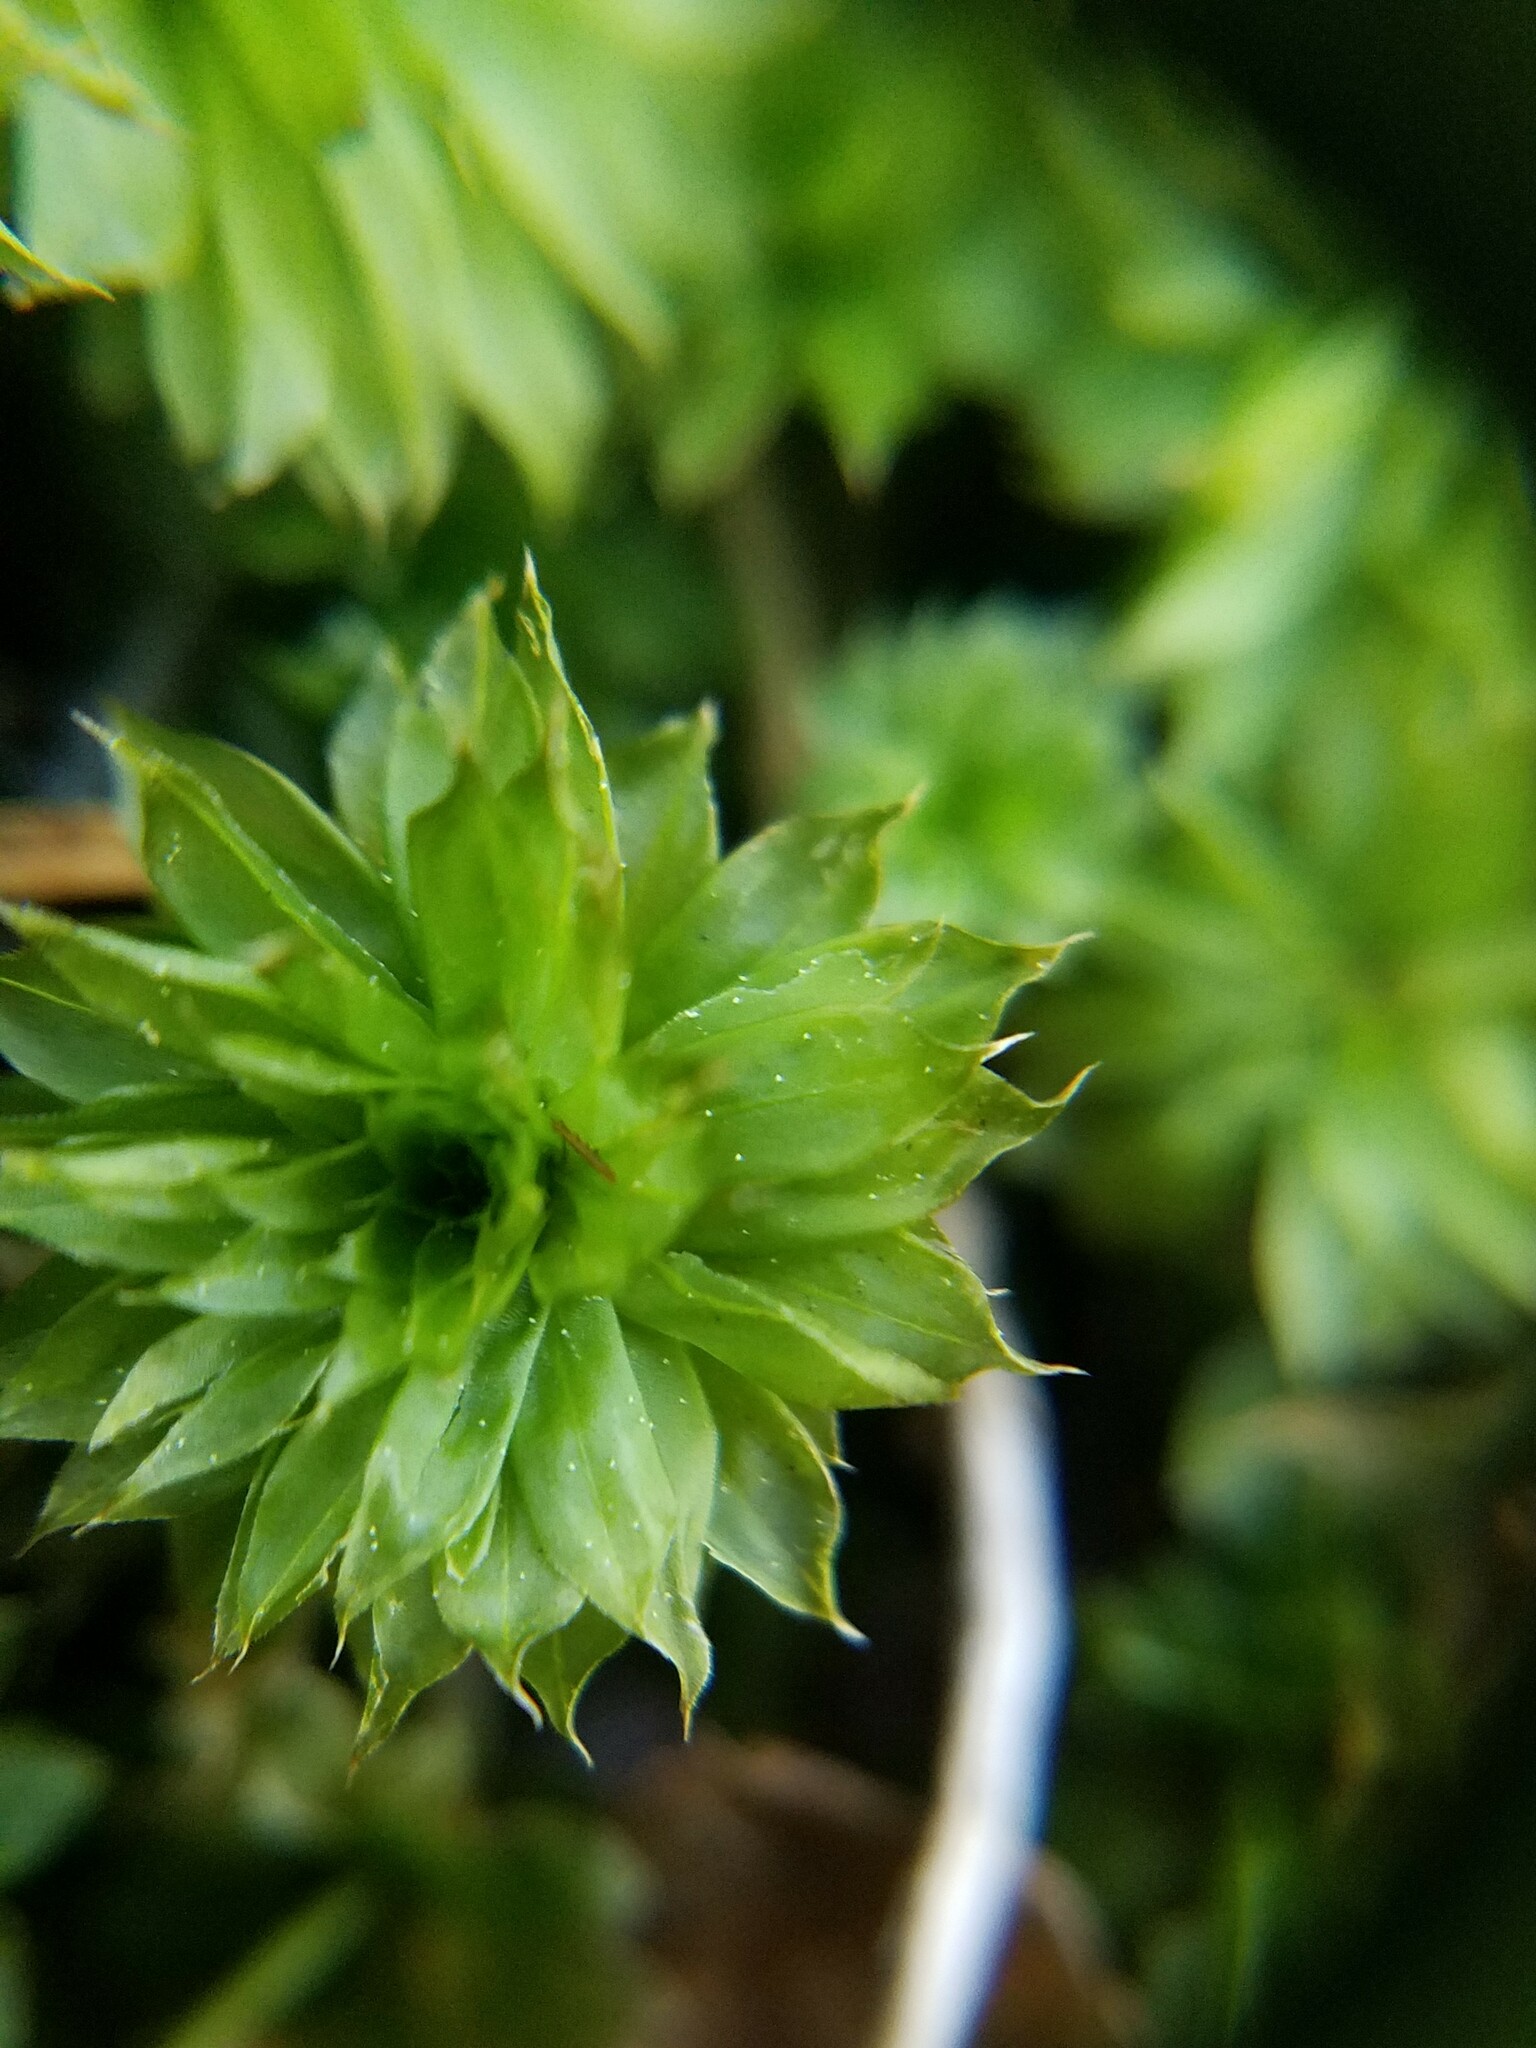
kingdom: Plantae
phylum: Bryophyta
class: Bryopsida
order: Bryales
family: Bryaceae
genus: Rhodobryum
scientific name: Rhodobryum ontariense
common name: Ontario rhodobryum moss
